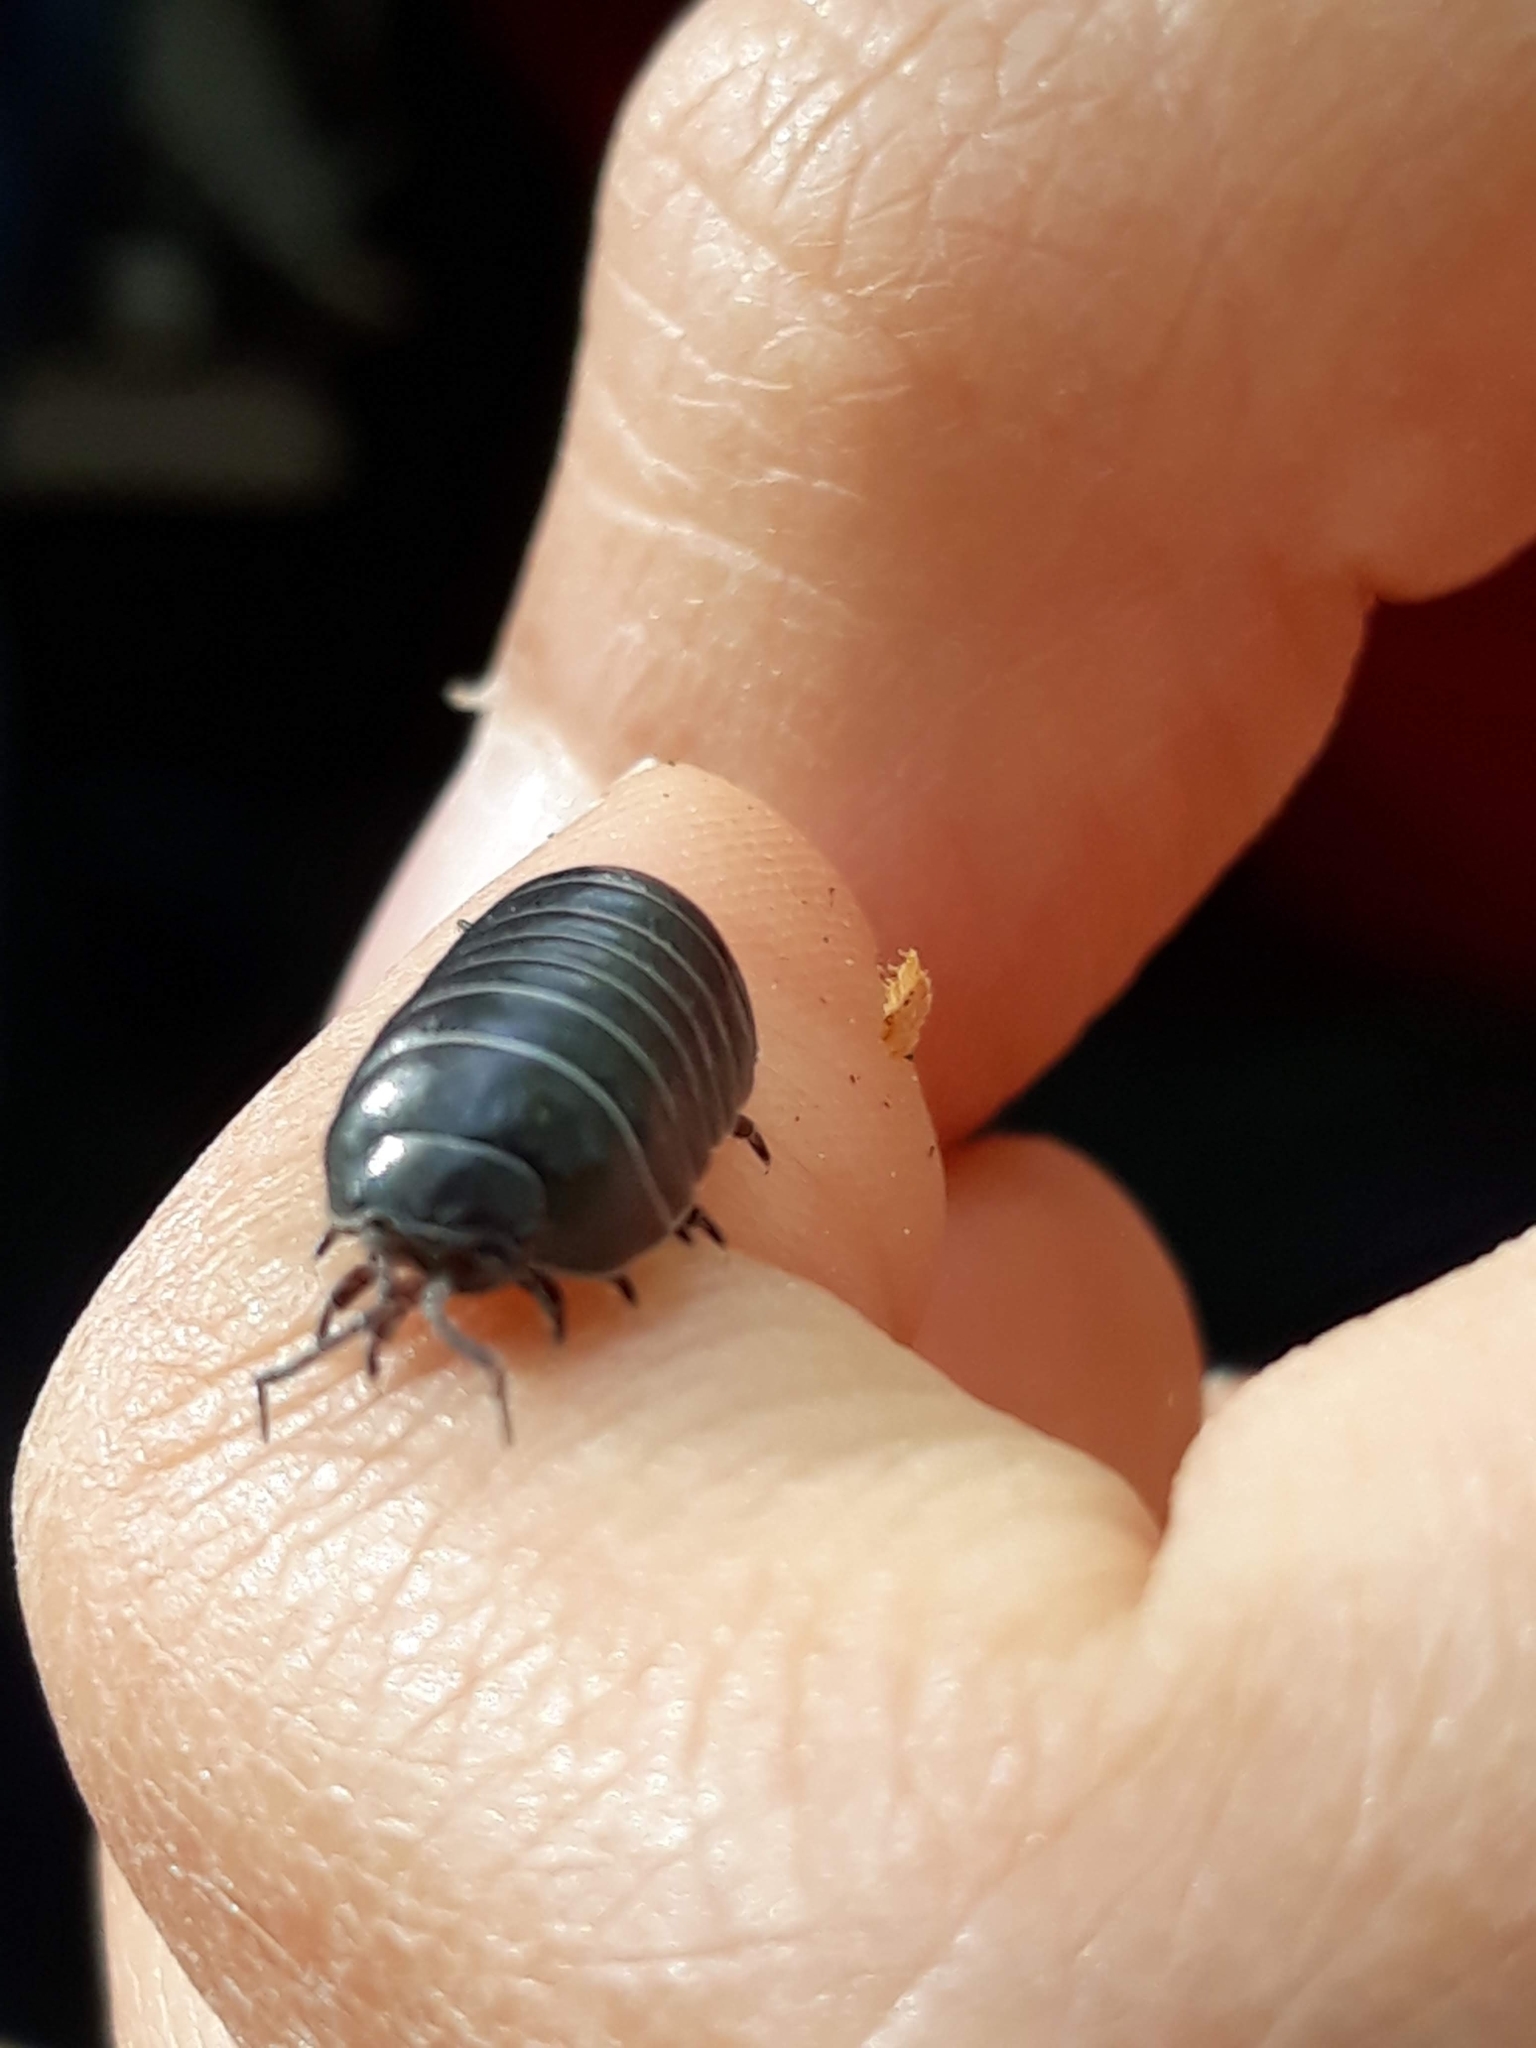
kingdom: Animalia
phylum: Arthropoda
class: Malacostraca
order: Isopoda
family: Armadillidiidae
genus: Armadillidium
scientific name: Armadillidium vulgare
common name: Common pill woodlouse
